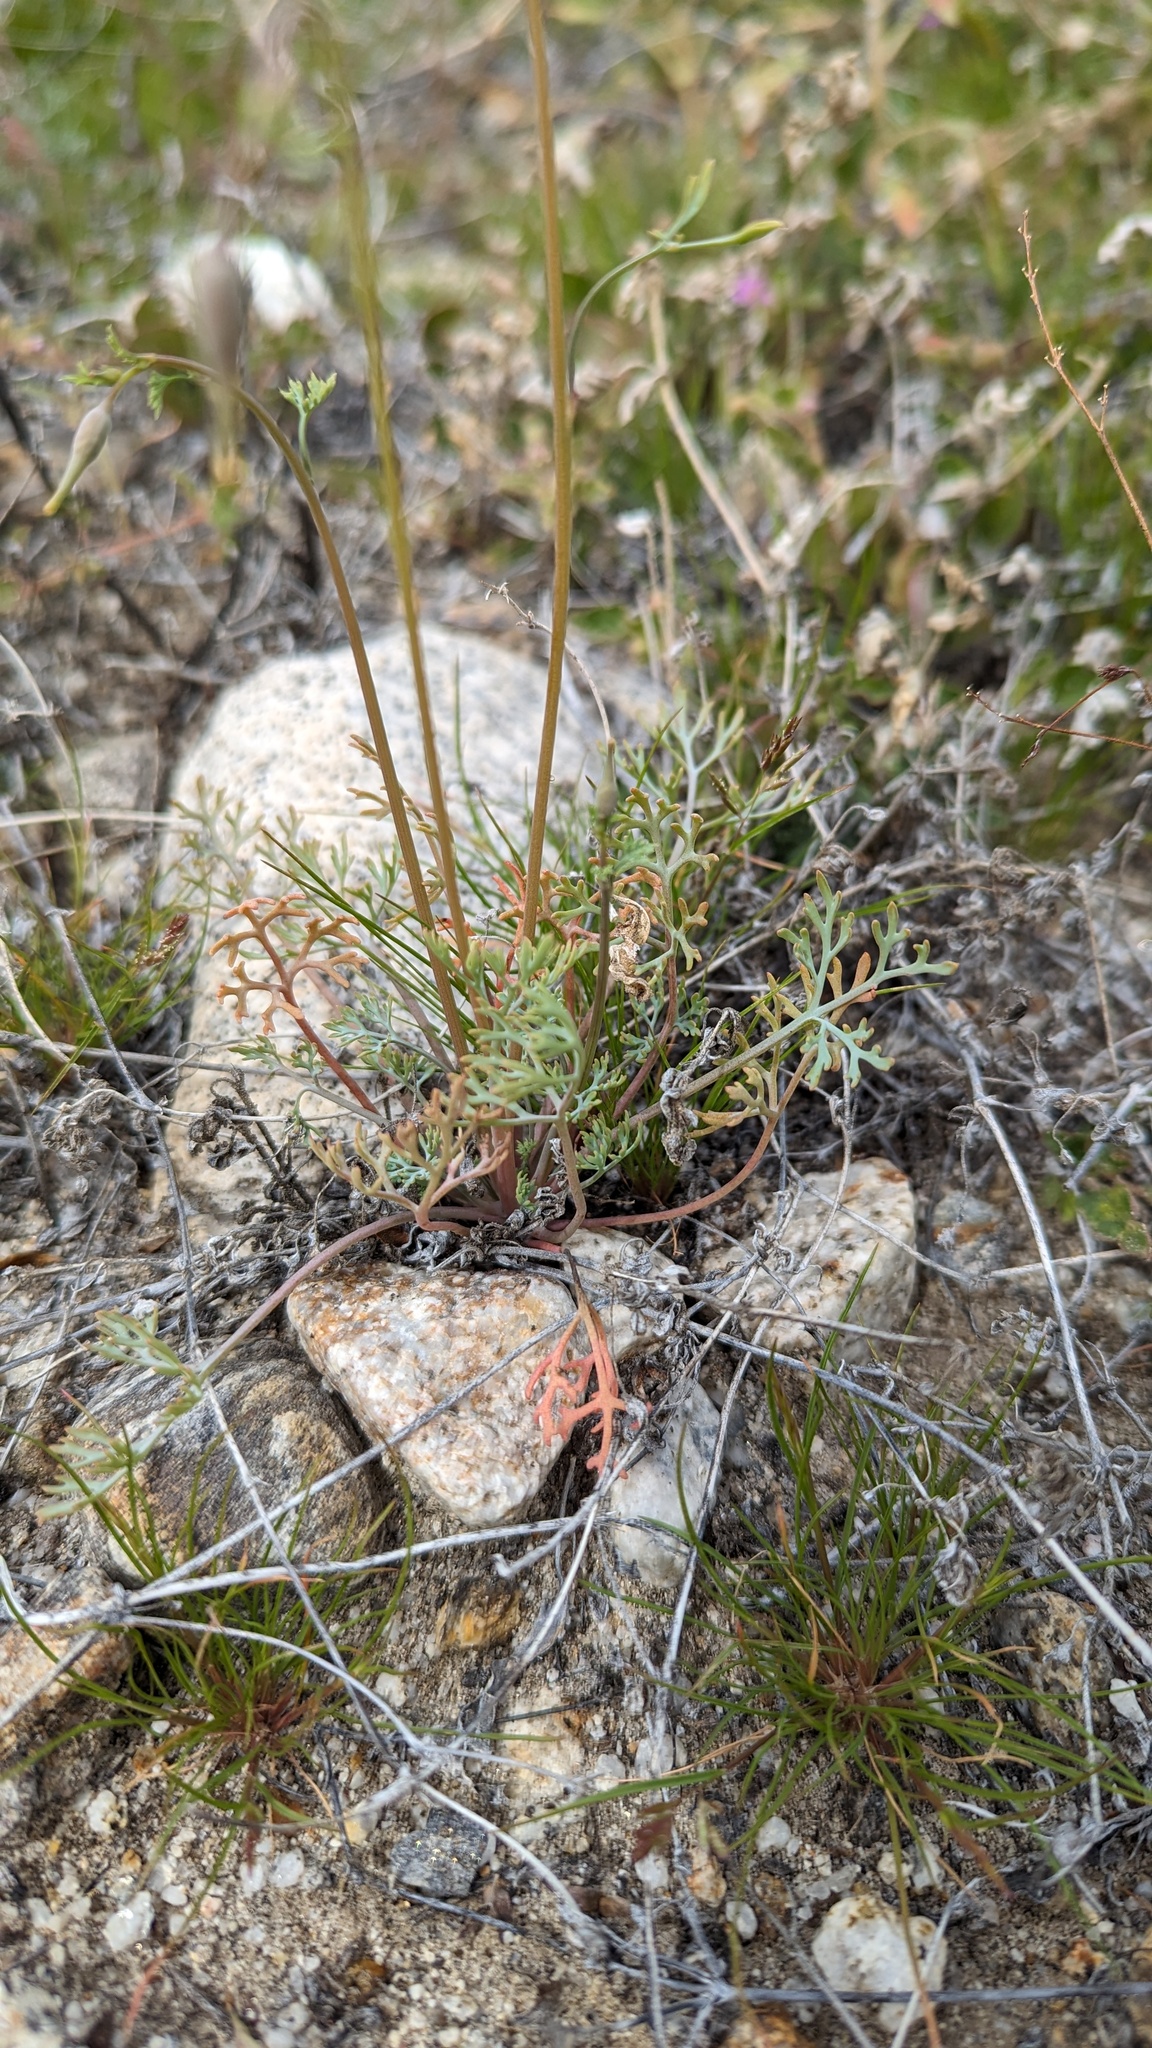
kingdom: Plantae
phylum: Tracheophyta
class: Magnoliopsida
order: Ranunculales
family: Papaveraceae
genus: Eschscholzia
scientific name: Eschscholzia parishii
